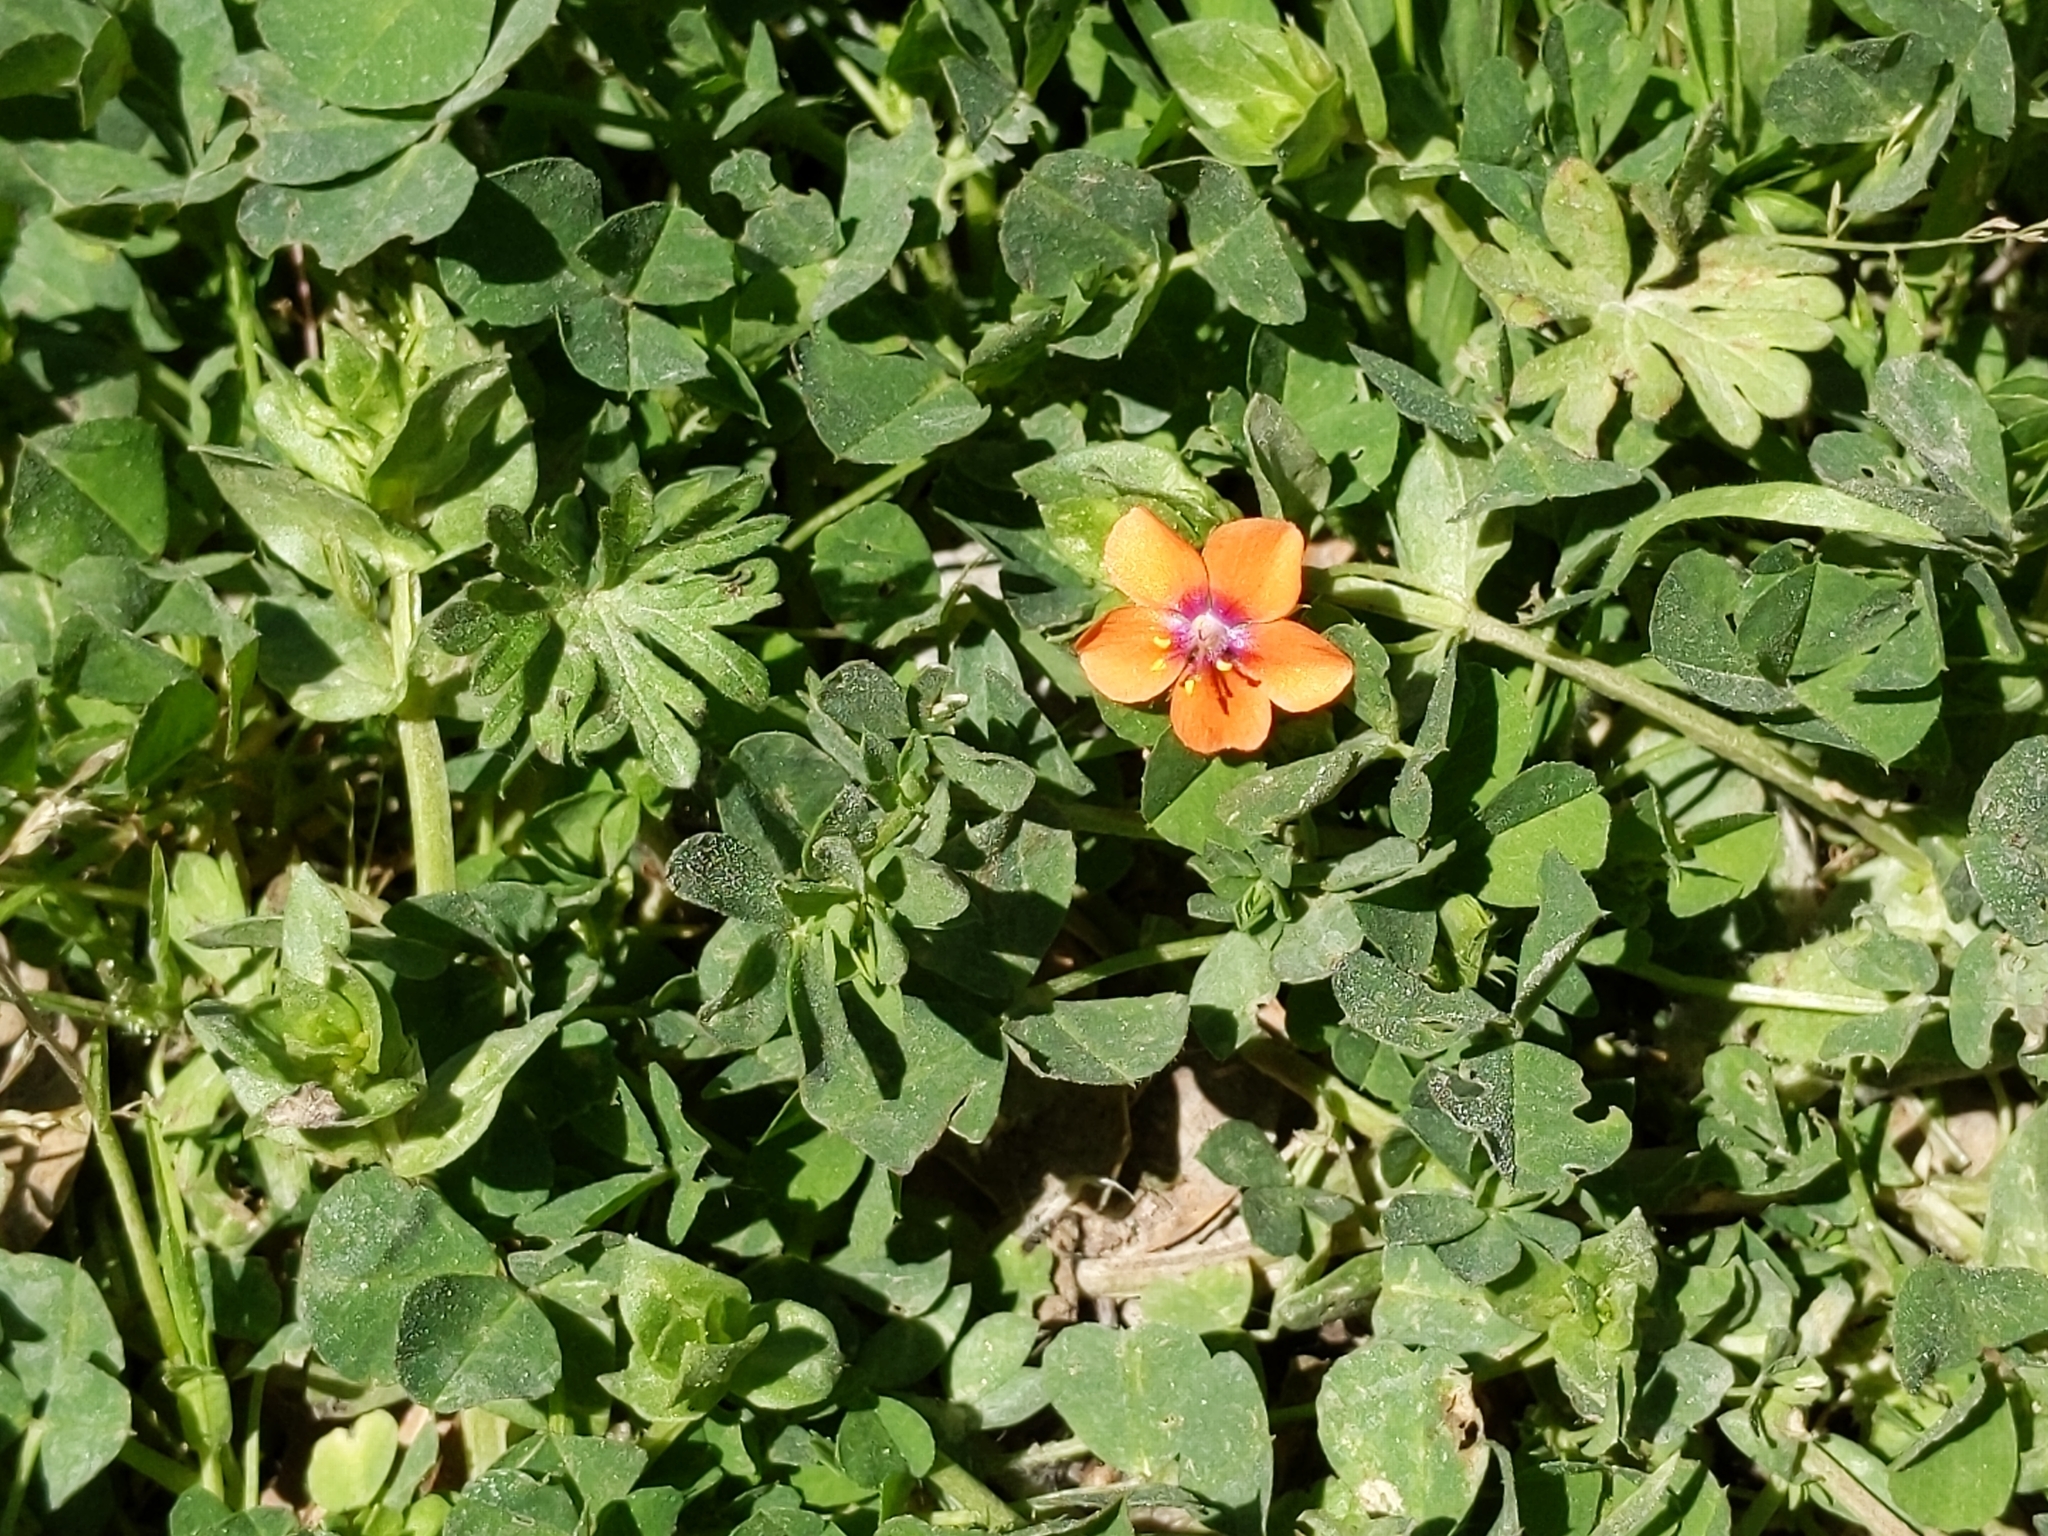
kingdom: Plantae
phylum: Tracheophyta
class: Magnoliopsida
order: Ericales
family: Primulaceae
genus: Lysimachia
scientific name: Lysimachia arvensis
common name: Scarlet pimpernel
